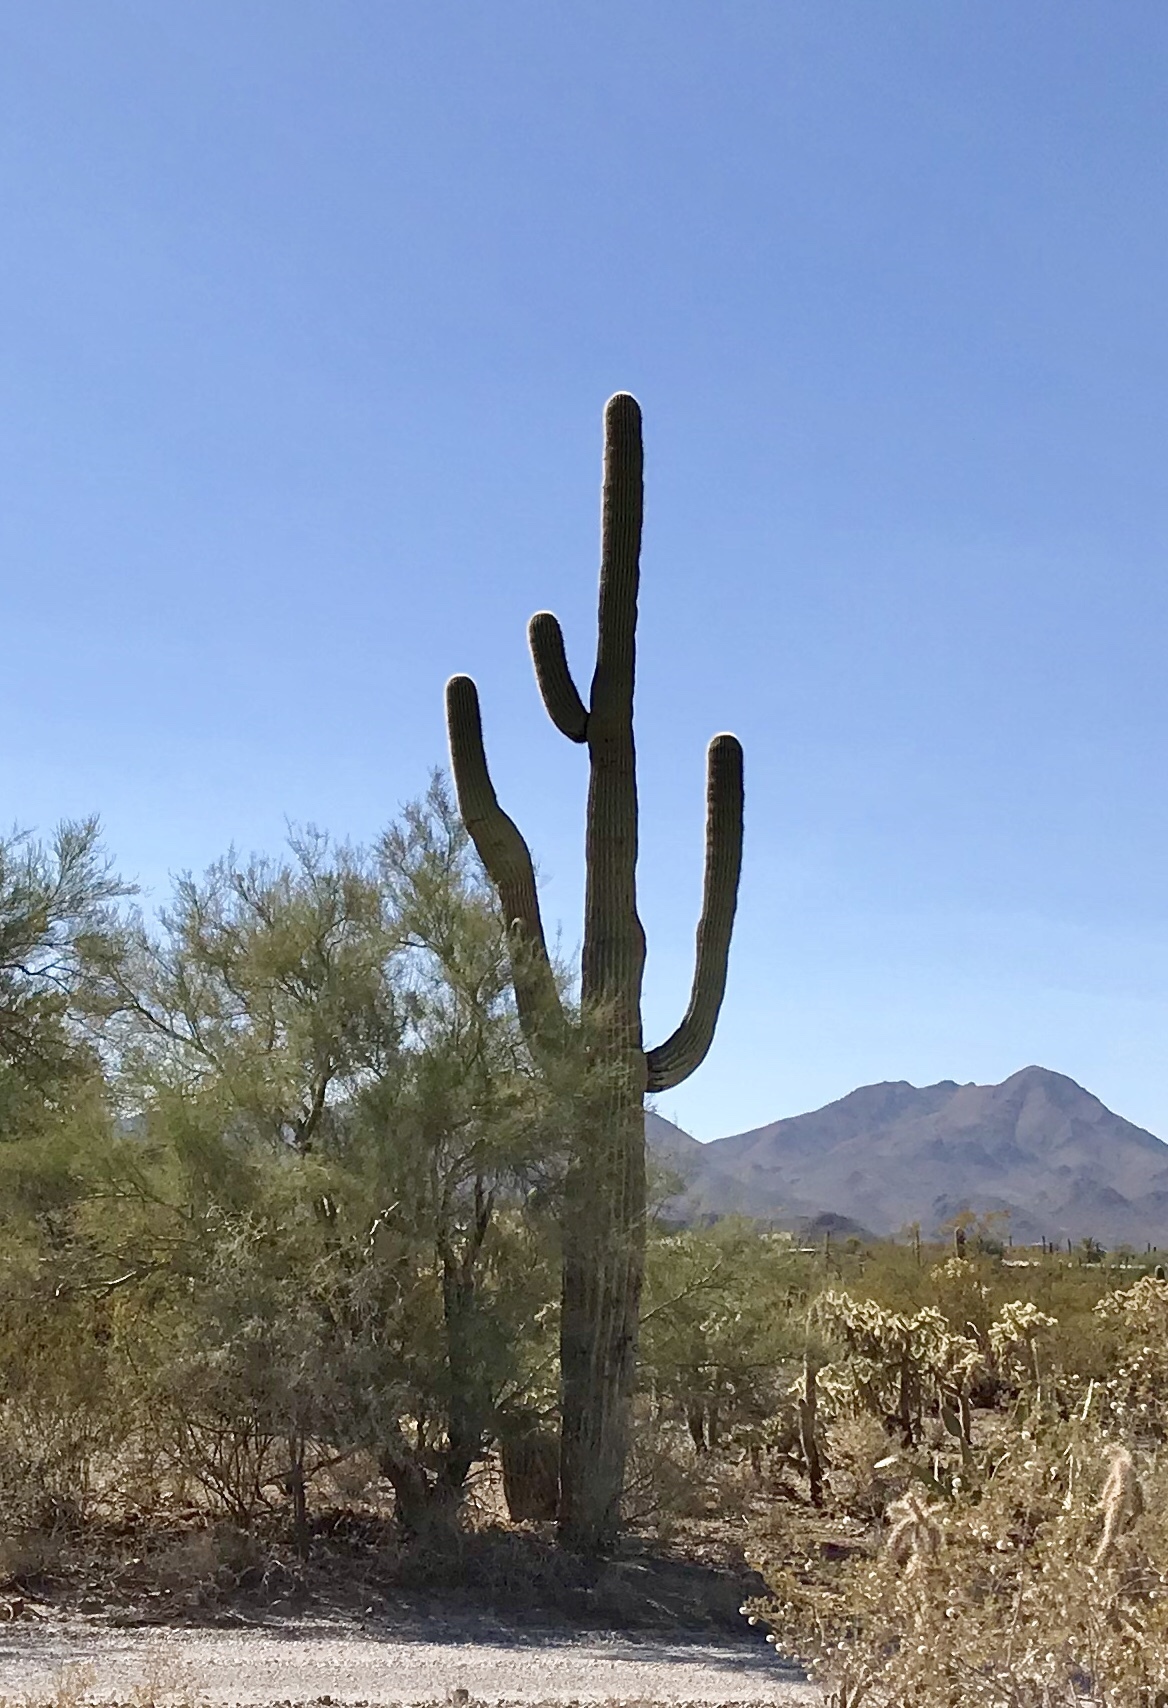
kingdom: Plantae
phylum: Tracheophyta
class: Magnoliopsida
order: Caryophyllales
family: Cactaceae
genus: Carnegiea
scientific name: Carnegiea gigantea
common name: Saguaro
